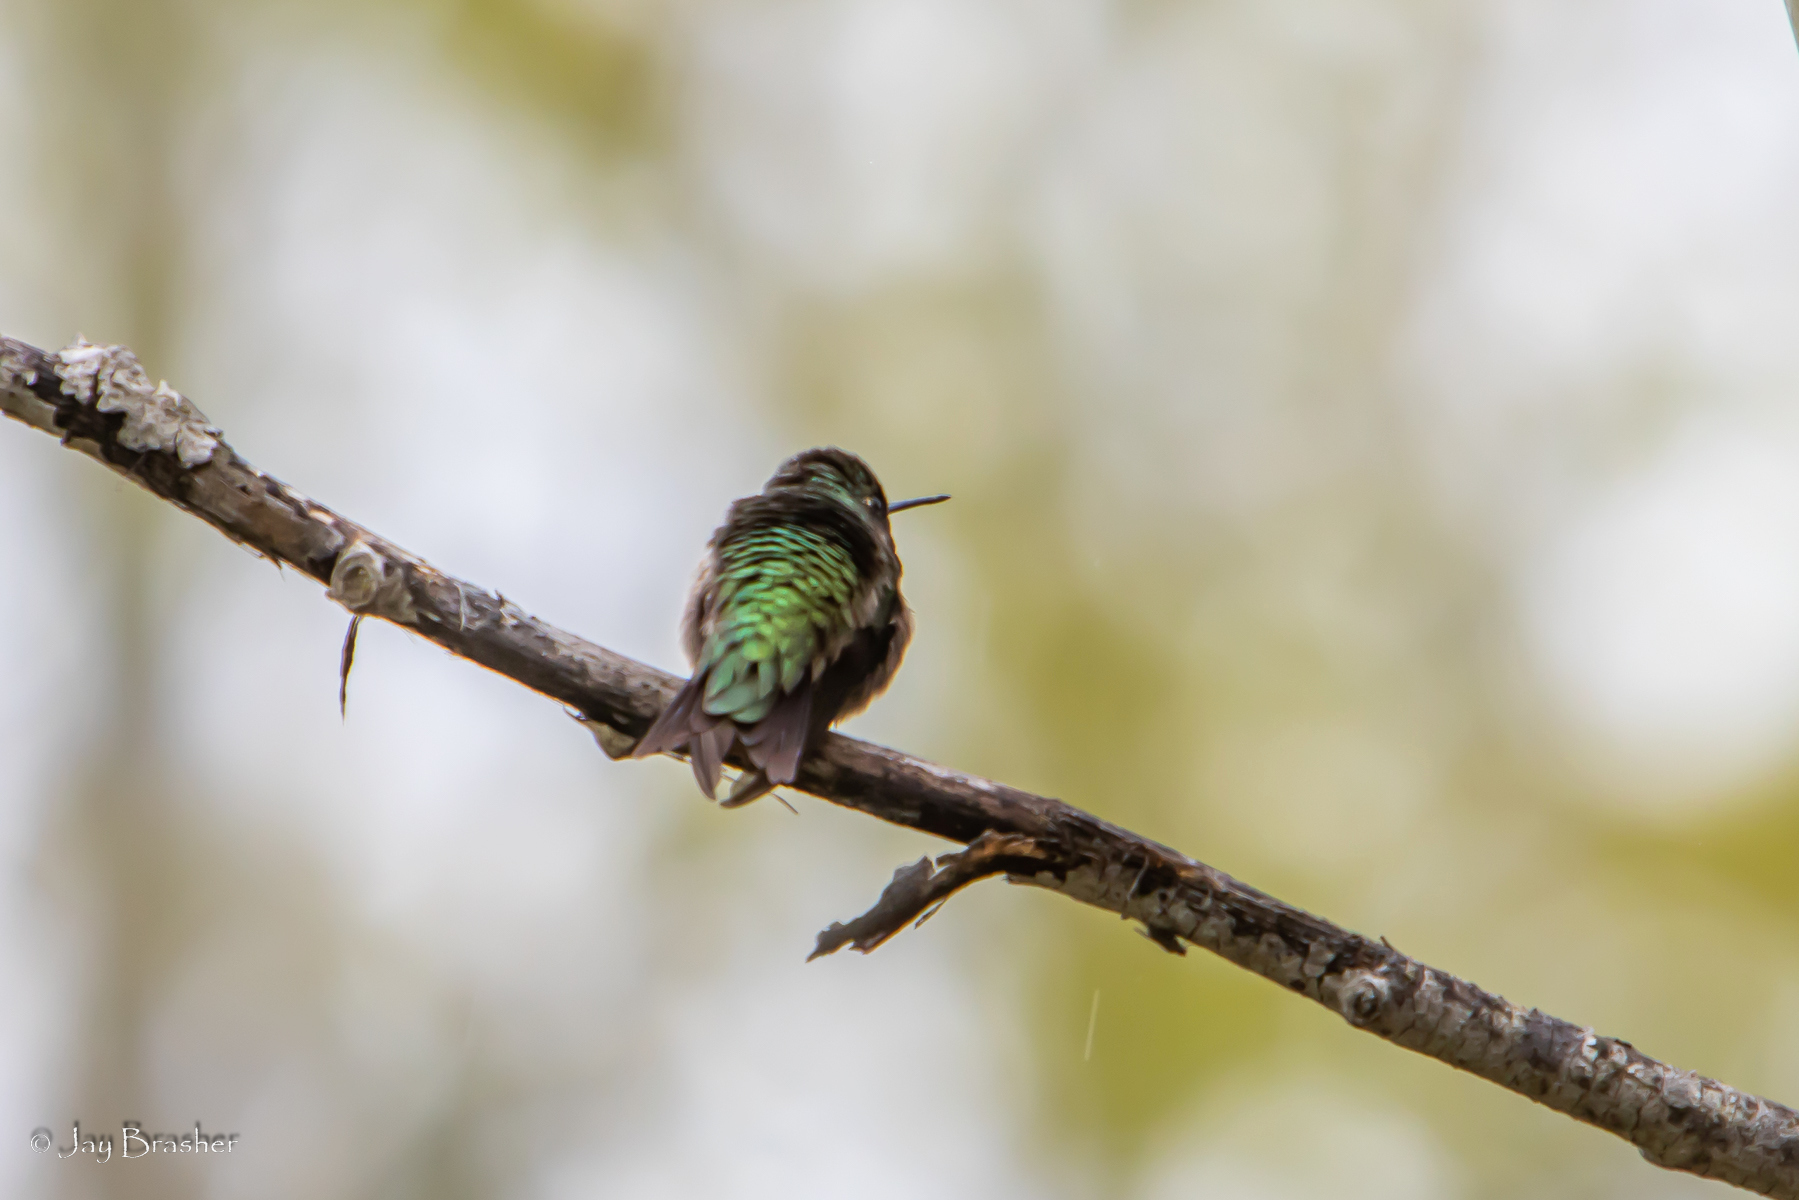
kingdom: Animalia
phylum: Chordata
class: Aves
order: Apodiformes
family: Trochilidae
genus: Archilochus
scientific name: Archilochus colubris
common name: Ruby-throated hummingbird
